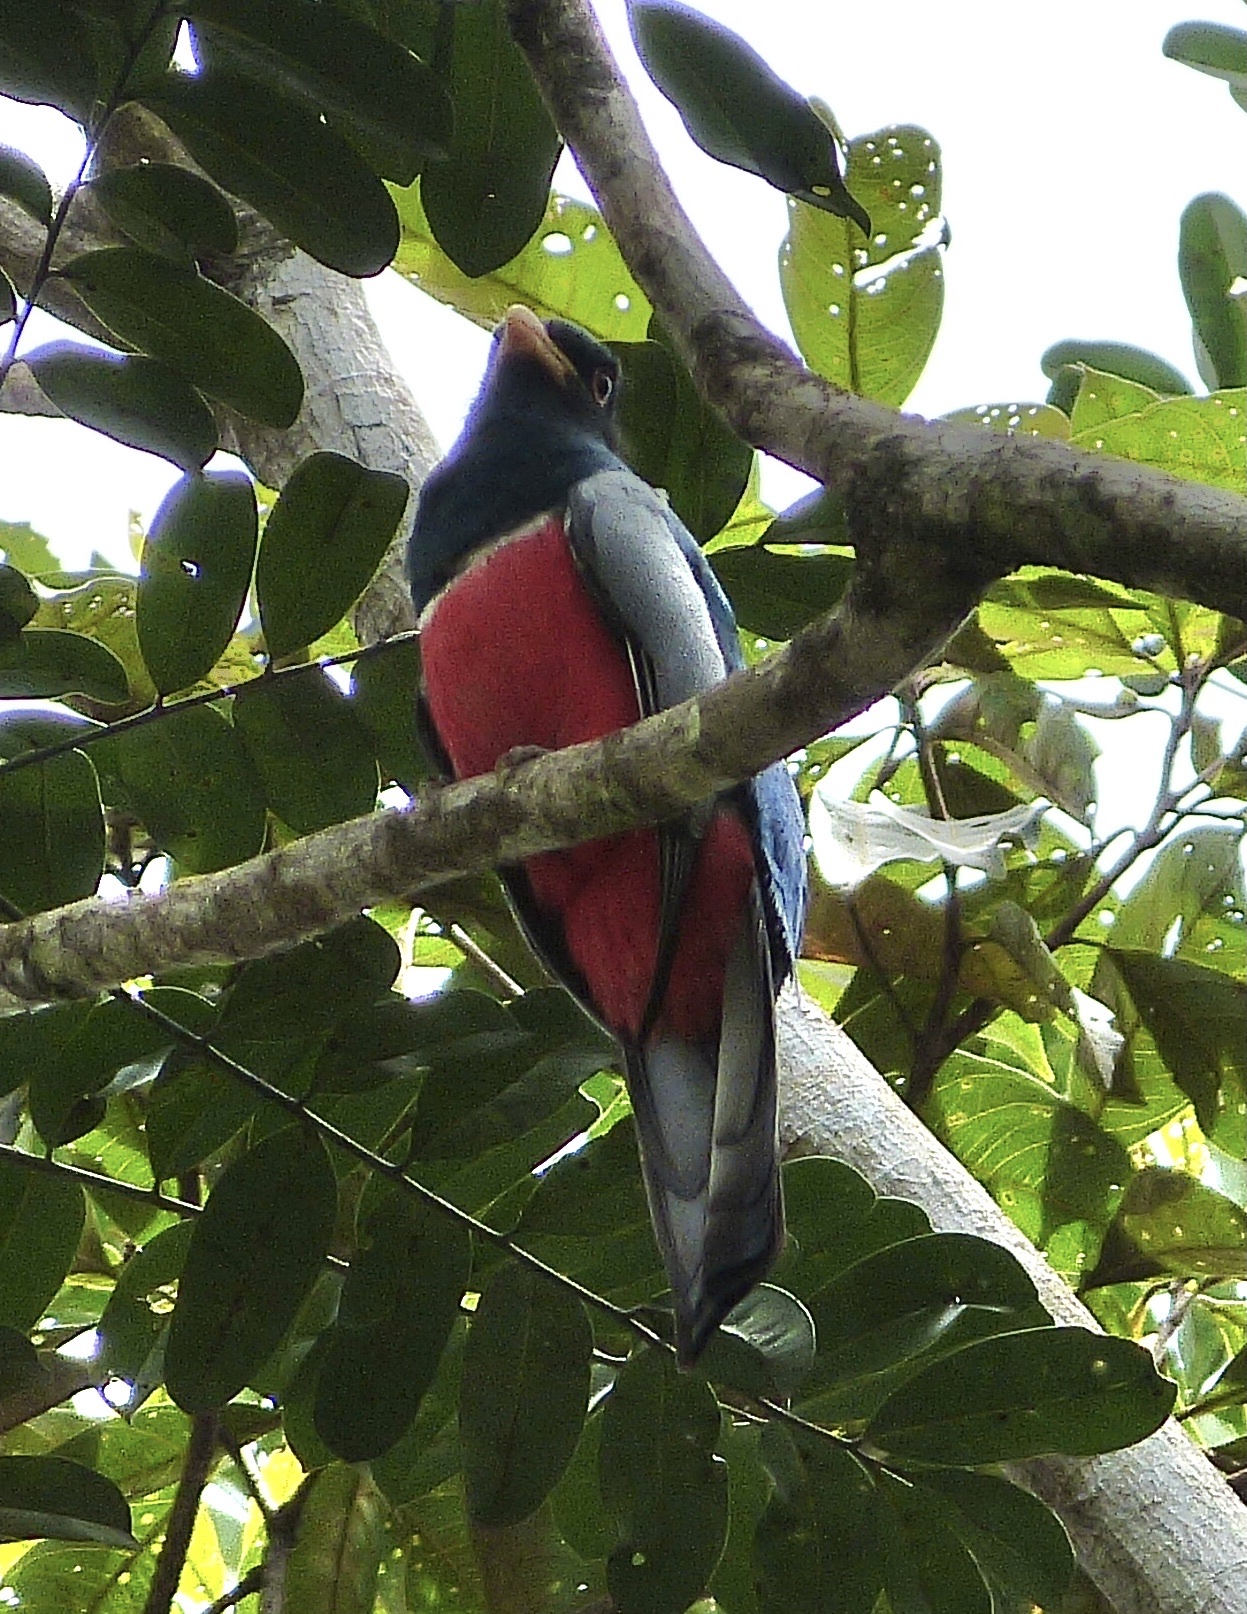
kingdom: Animalia
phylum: Chordata
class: Aves
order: Trogoniformes
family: Trogonidae
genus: Trogon
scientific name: Trogon melanurus
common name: Black-tailed trogon
